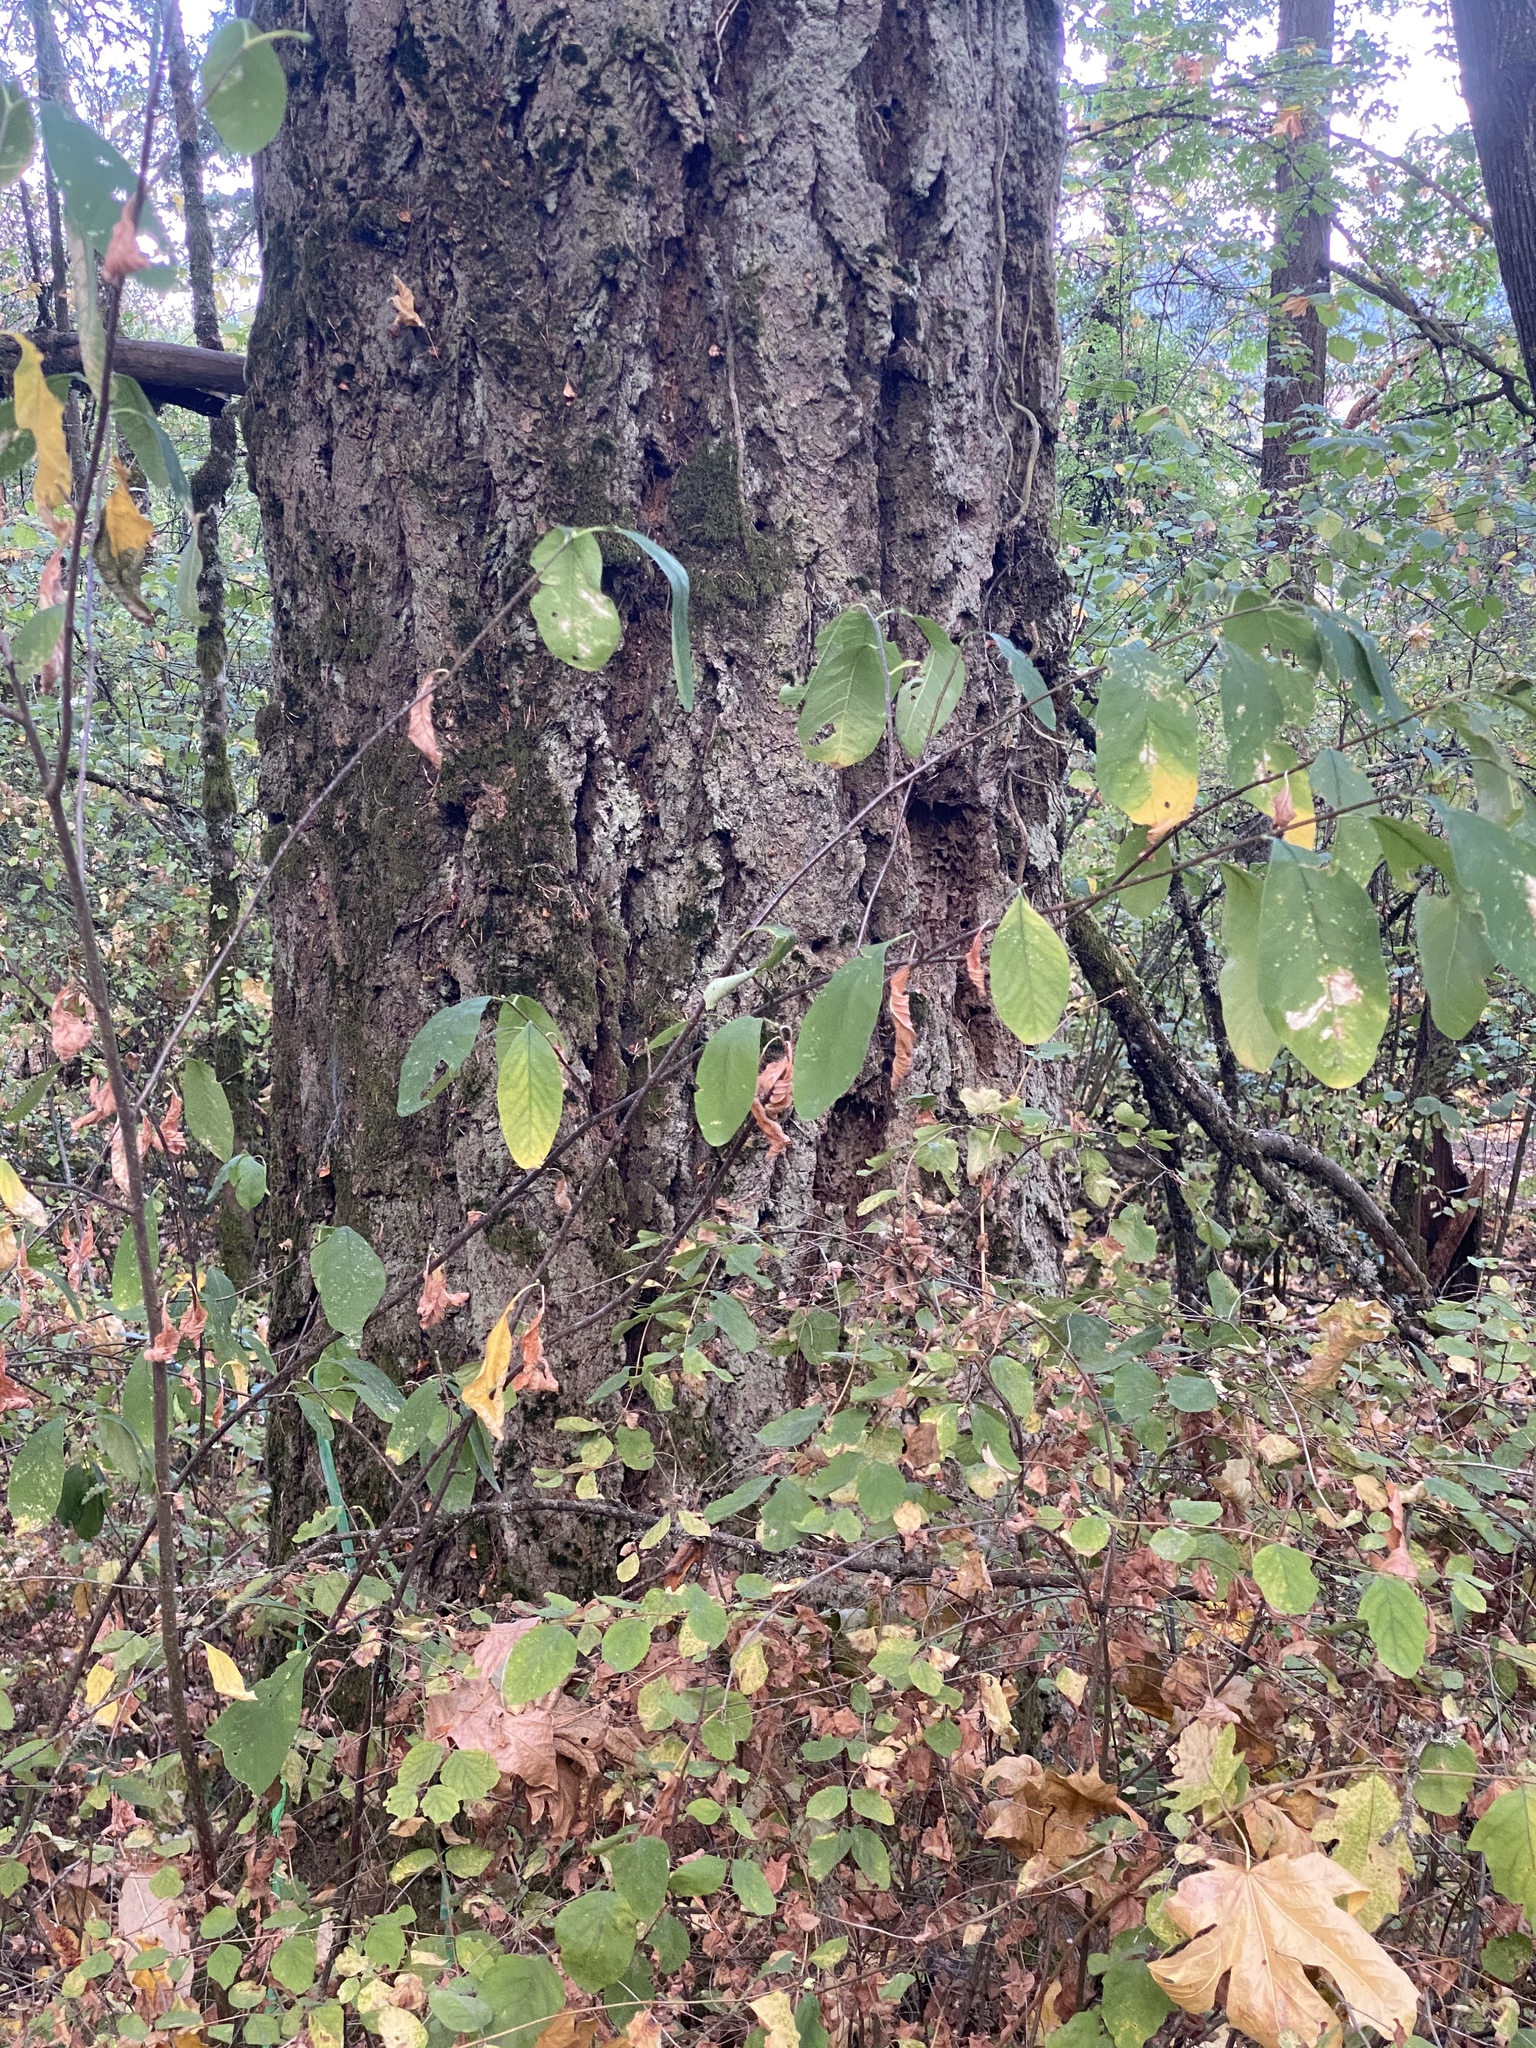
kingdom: Plantae
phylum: Tracheophyta
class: Magnoliopsida
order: Rosales
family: Rosaceae
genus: Oemleria
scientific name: Oemleria cerasiformis
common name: Osoberry
